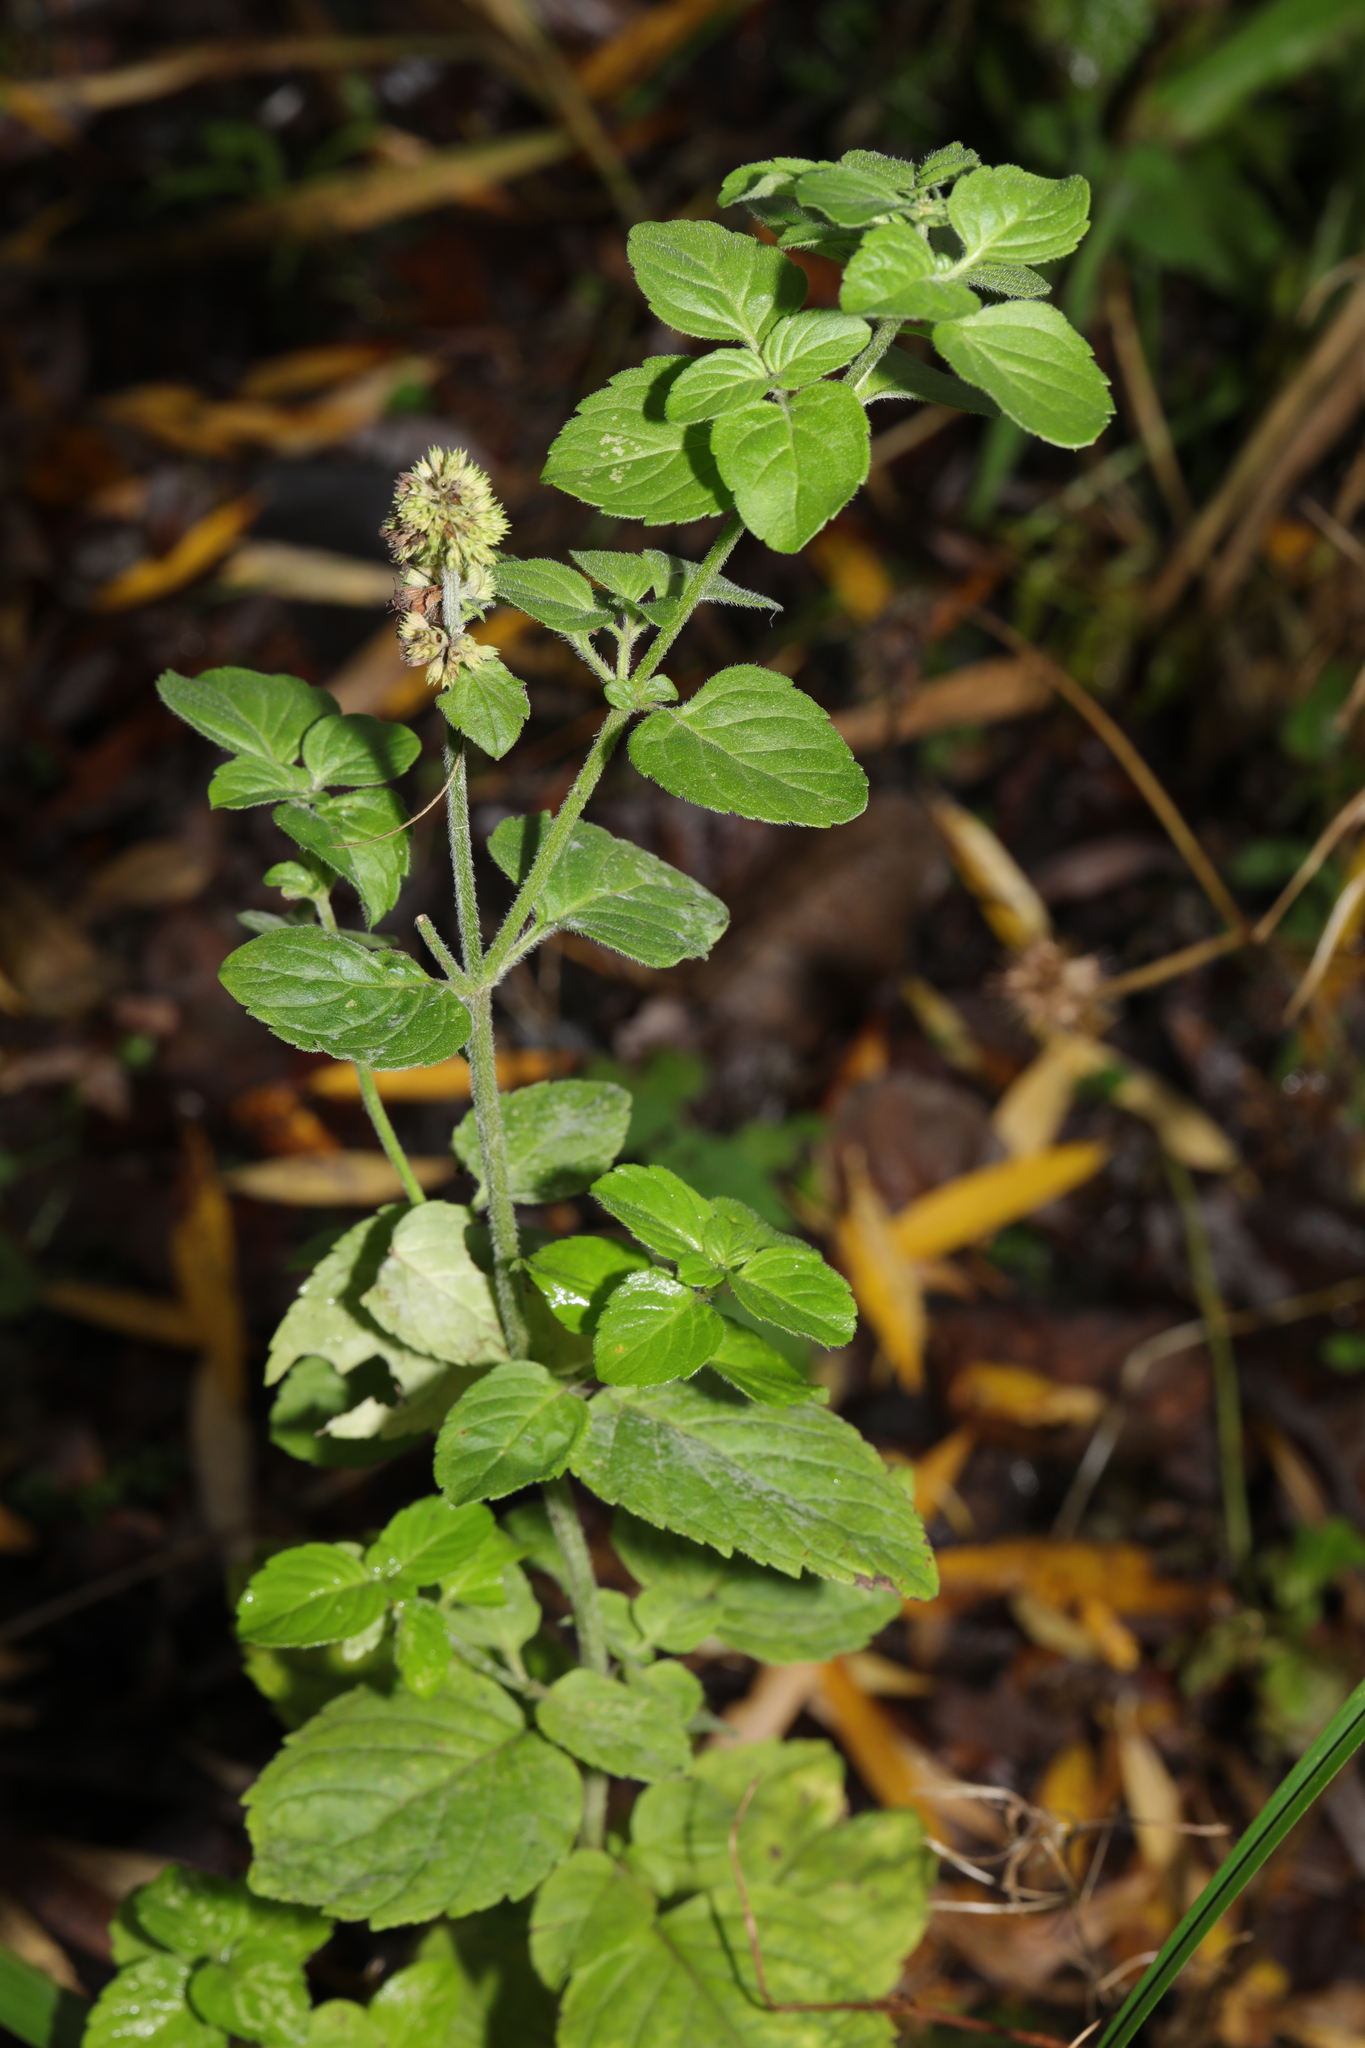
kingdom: Plantae
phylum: Tracheophyta
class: Magnoliopsida
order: Lamiales
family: Lamiaceae
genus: Mentha
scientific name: Mentha aquatica
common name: Water mint
